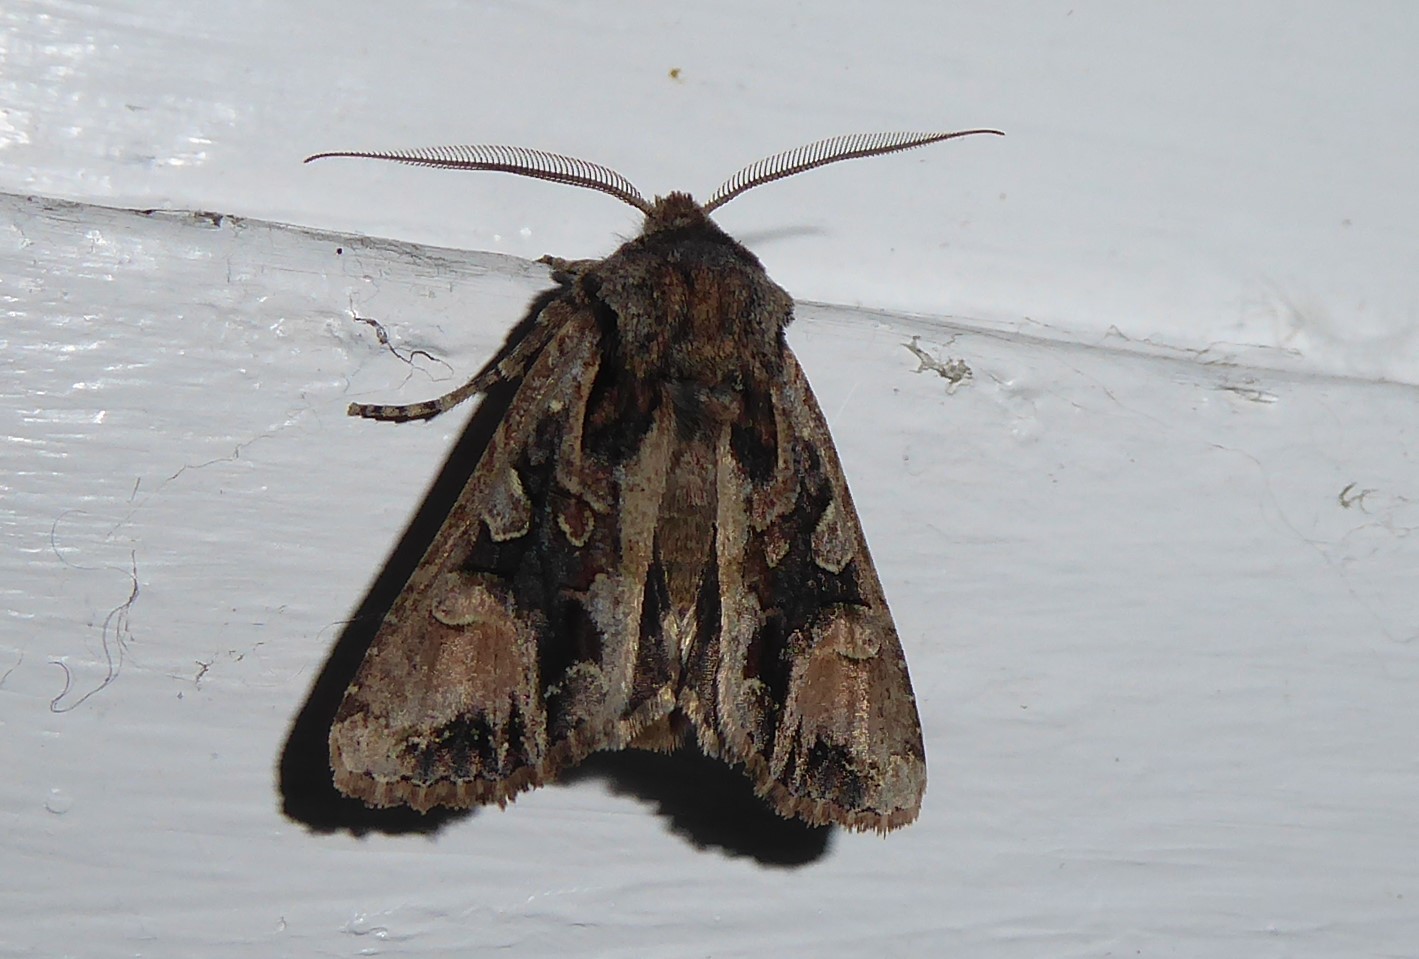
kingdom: Animalia
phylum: Arthropoda
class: Insecta
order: Lepidoptera
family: Noctuidae
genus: Ichneutica
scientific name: Ichneutica
